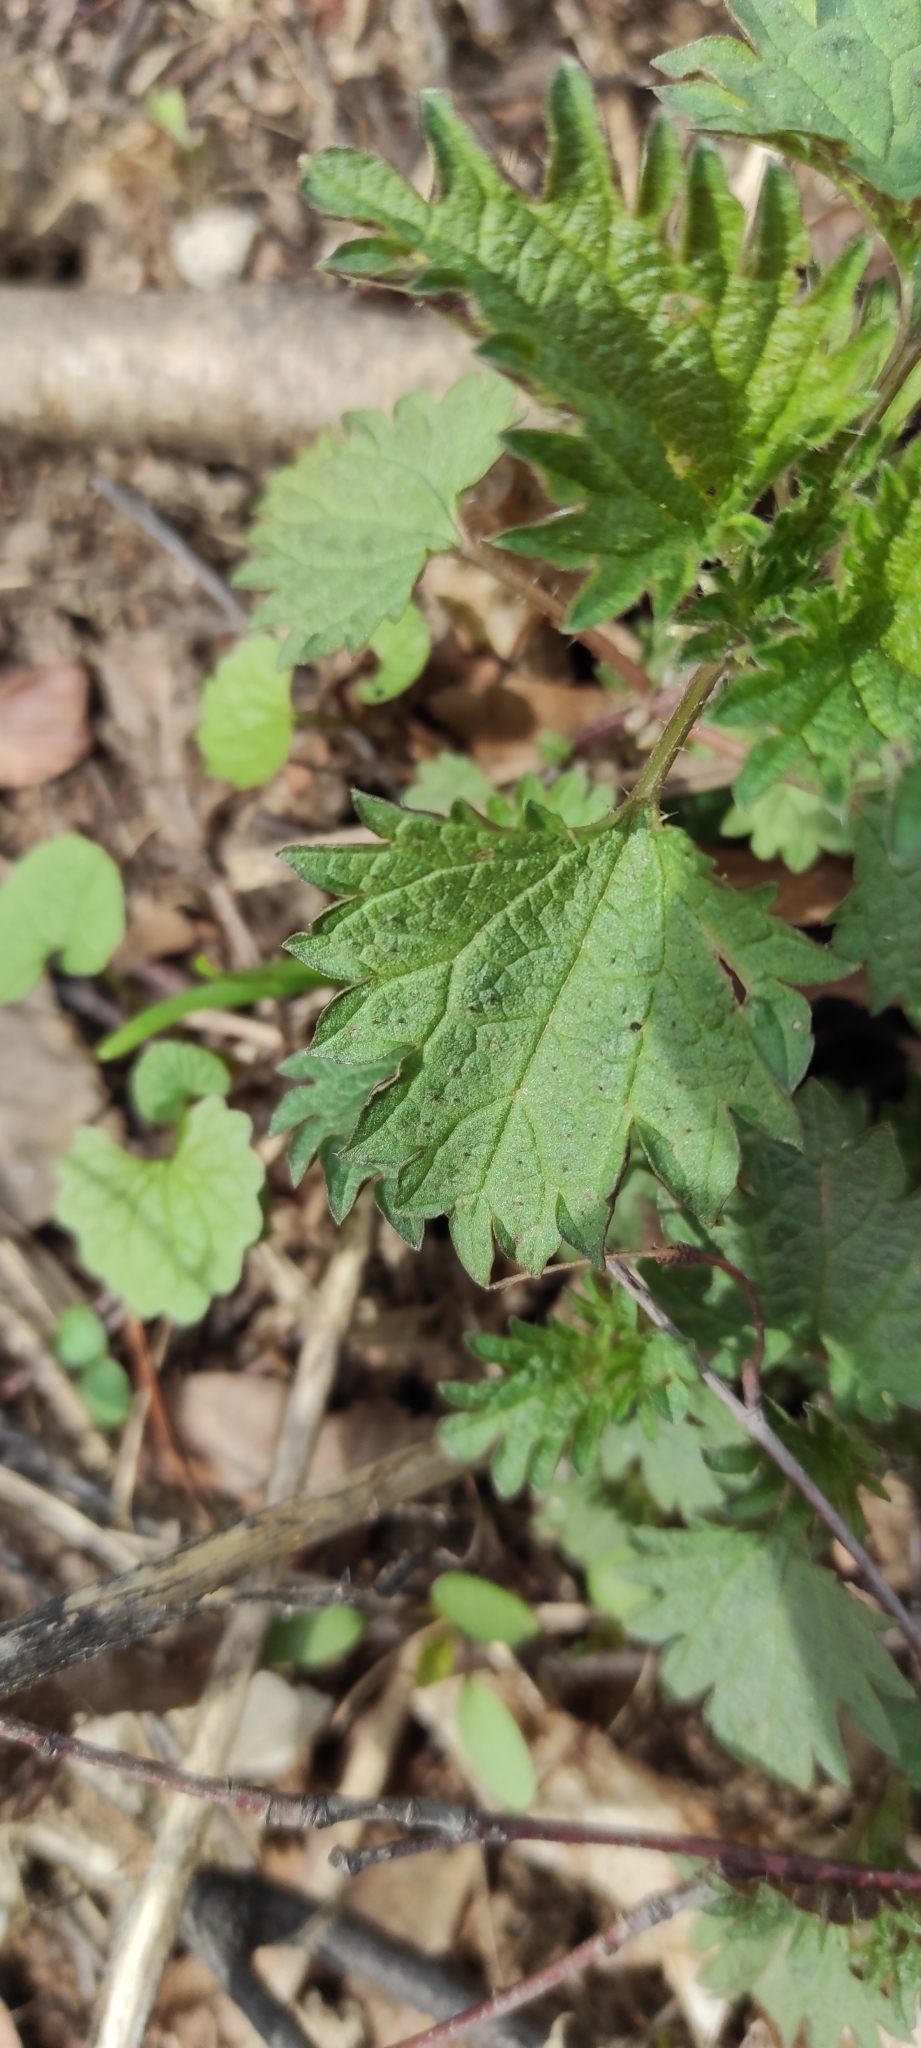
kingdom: Plantae
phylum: Tracheophyta
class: Magnoliopsida
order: Rosales
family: Urticaceae
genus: Urtica
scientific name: Urtica dioica
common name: Common nettle
